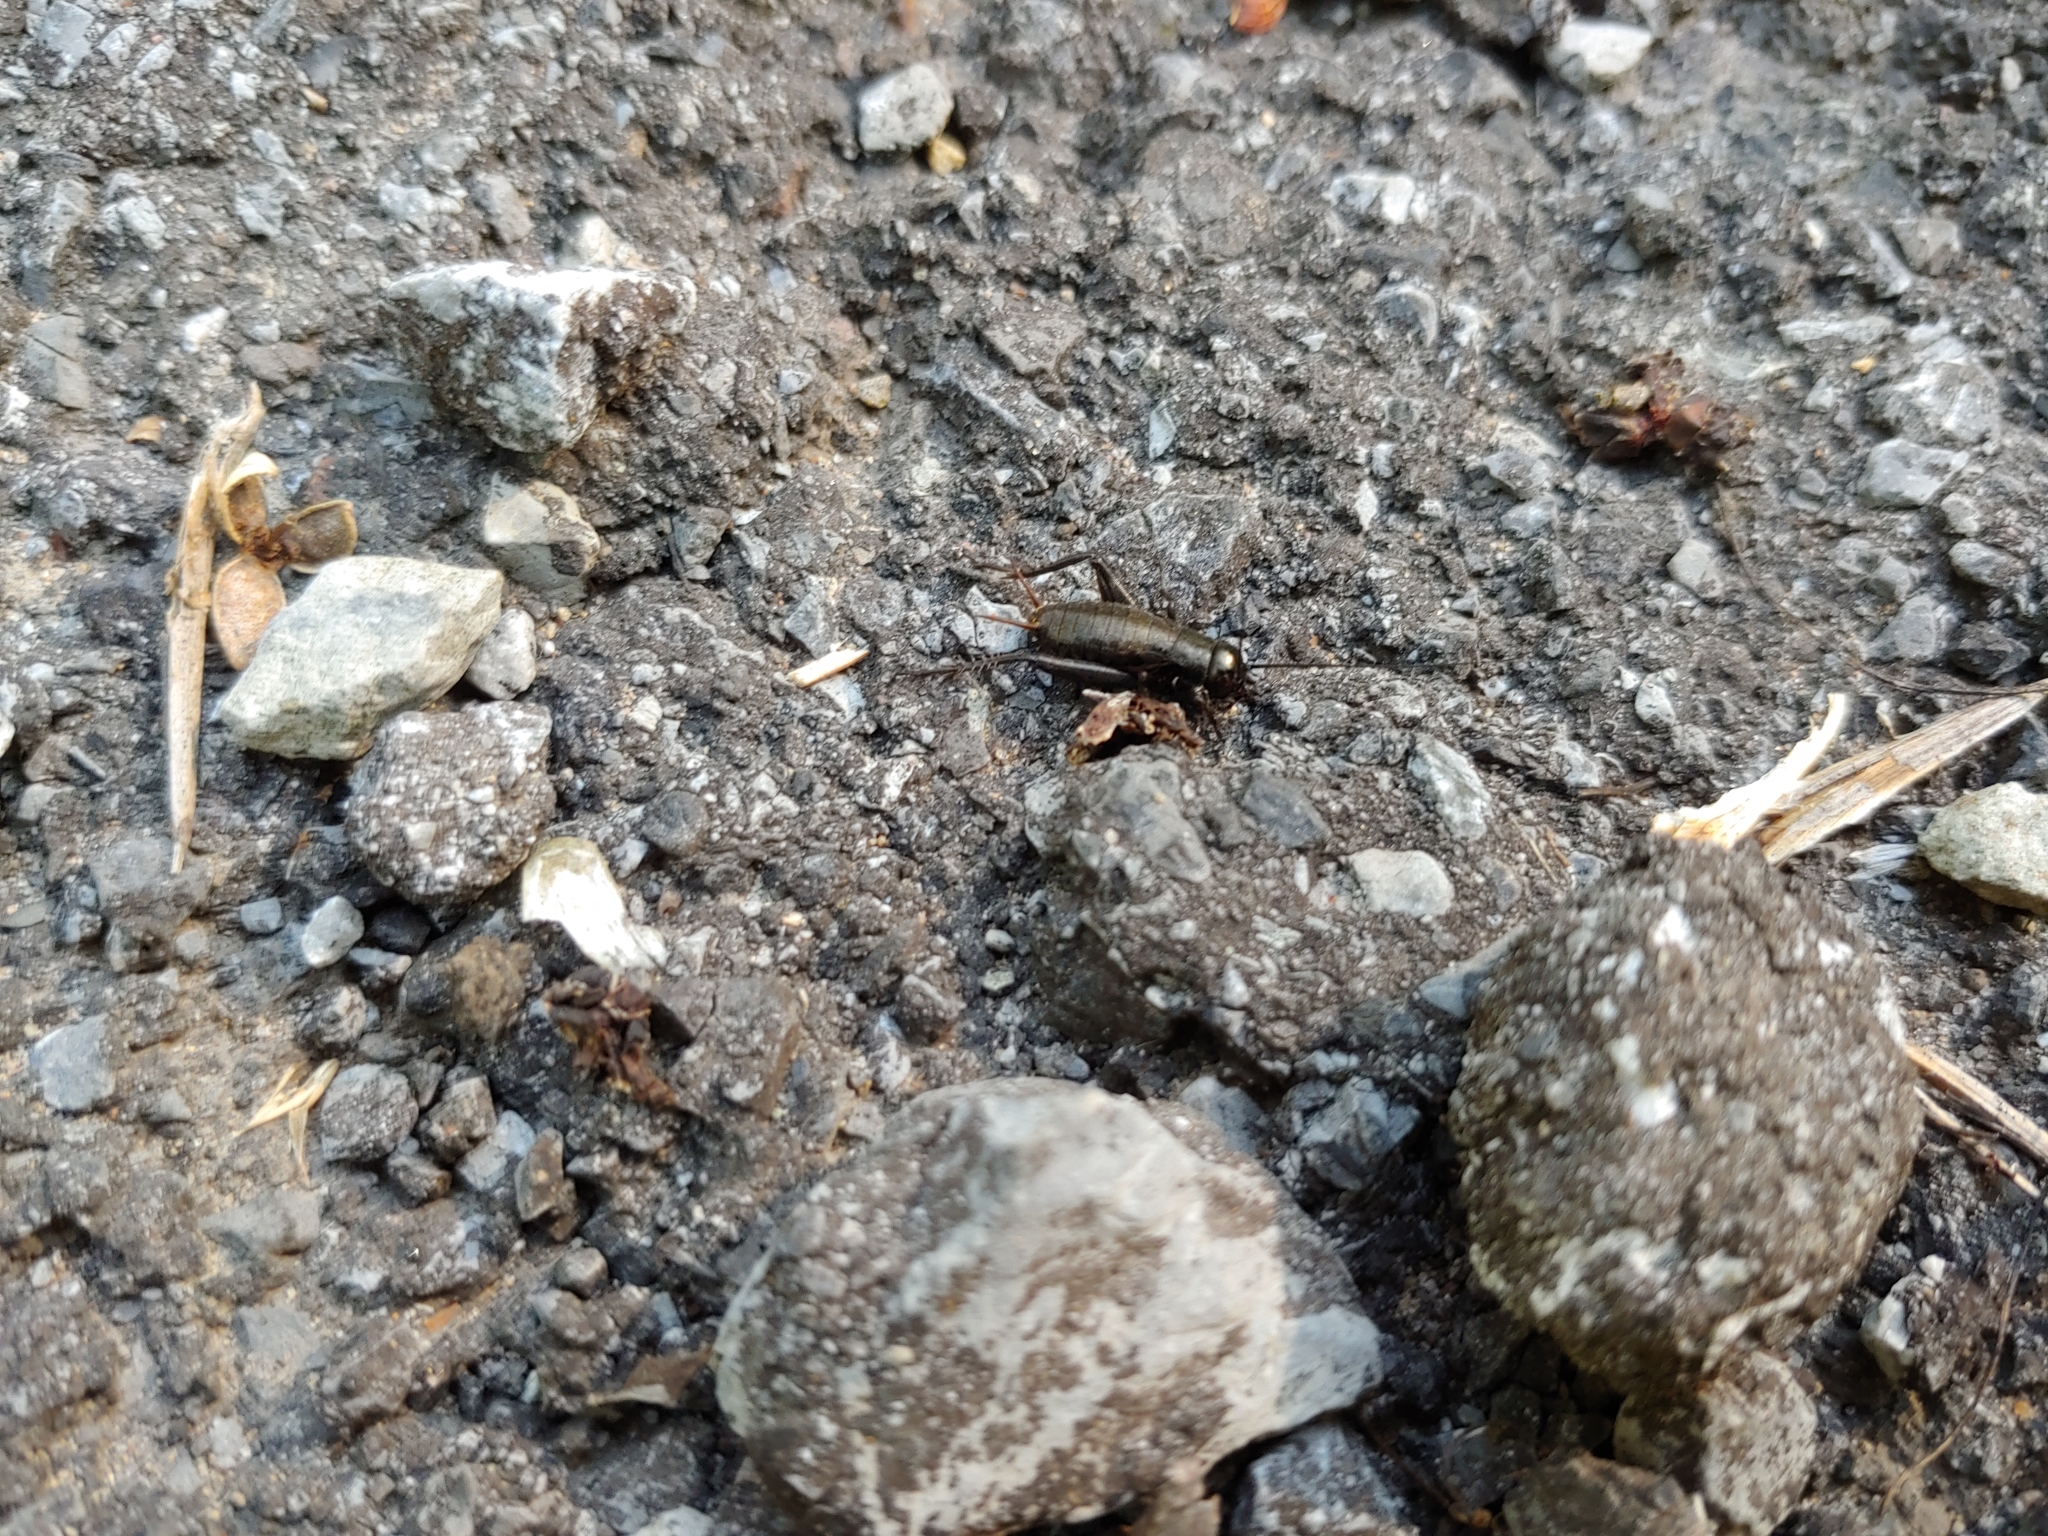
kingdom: Animalia
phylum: Arthropoda
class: Insecta
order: Orthoptera
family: Gryllidae
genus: Gryllus
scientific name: Gryllus
